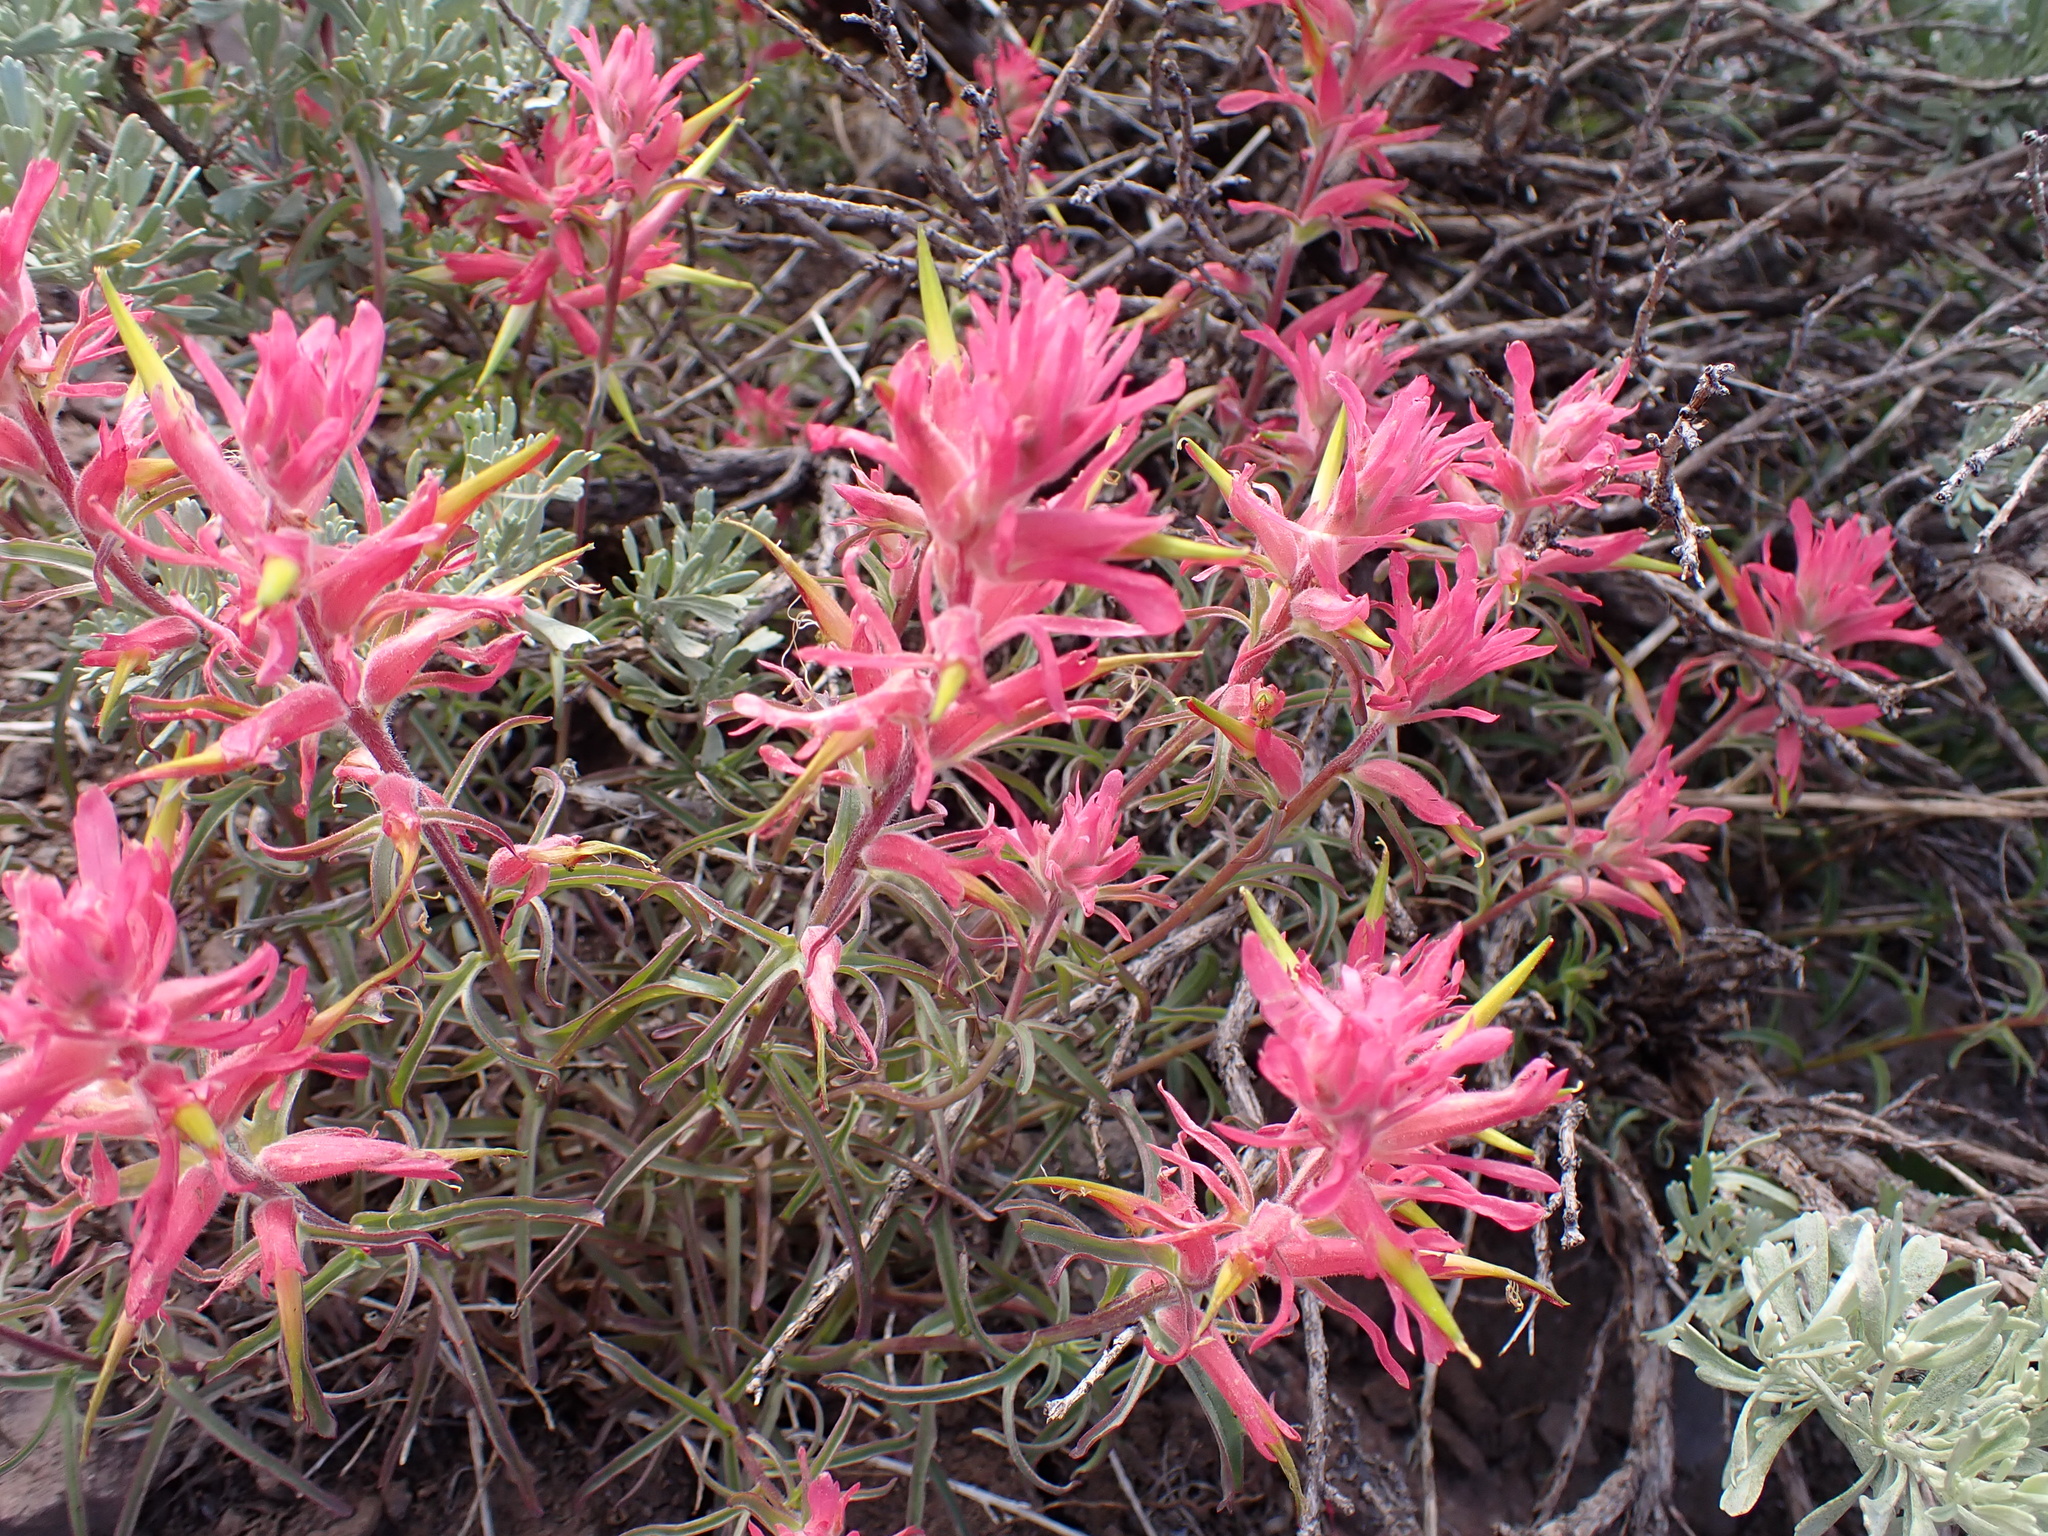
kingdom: Plantae
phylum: Tracheophyta
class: Magnoliopsida
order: Lamiales
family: Orobanchaceae
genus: Castilleja
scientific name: Castilleja linariifolia
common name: Wyoming paintbrush
